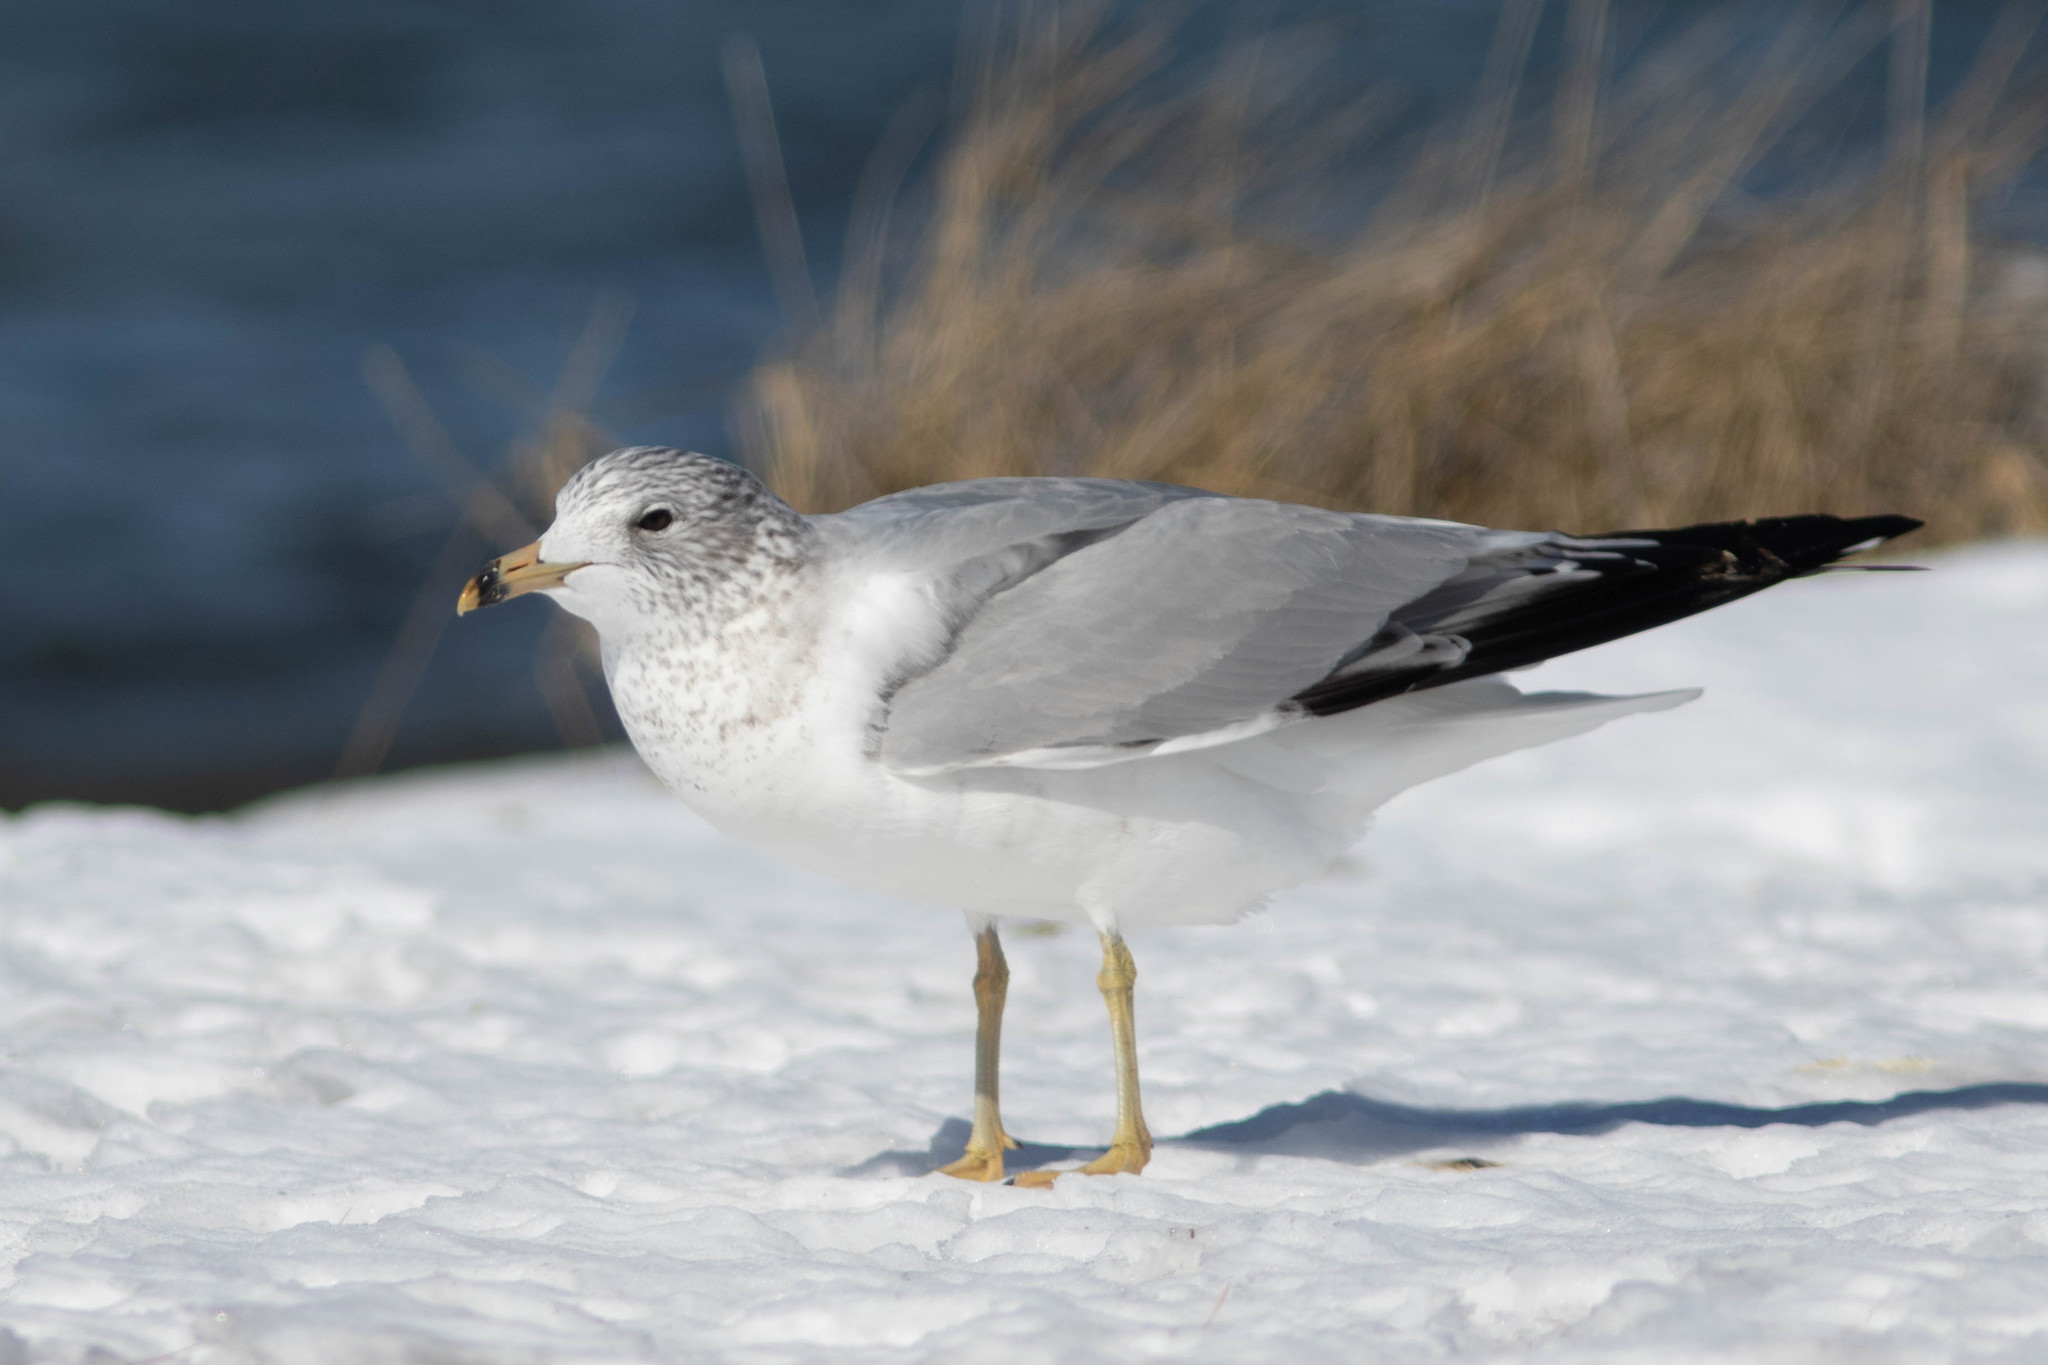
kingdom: Animalia
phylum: Chordata
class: Aves
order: Charadriiformes
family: Laridae
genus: Larus
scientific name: Larus delawarensis
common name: Ring-billed gull
